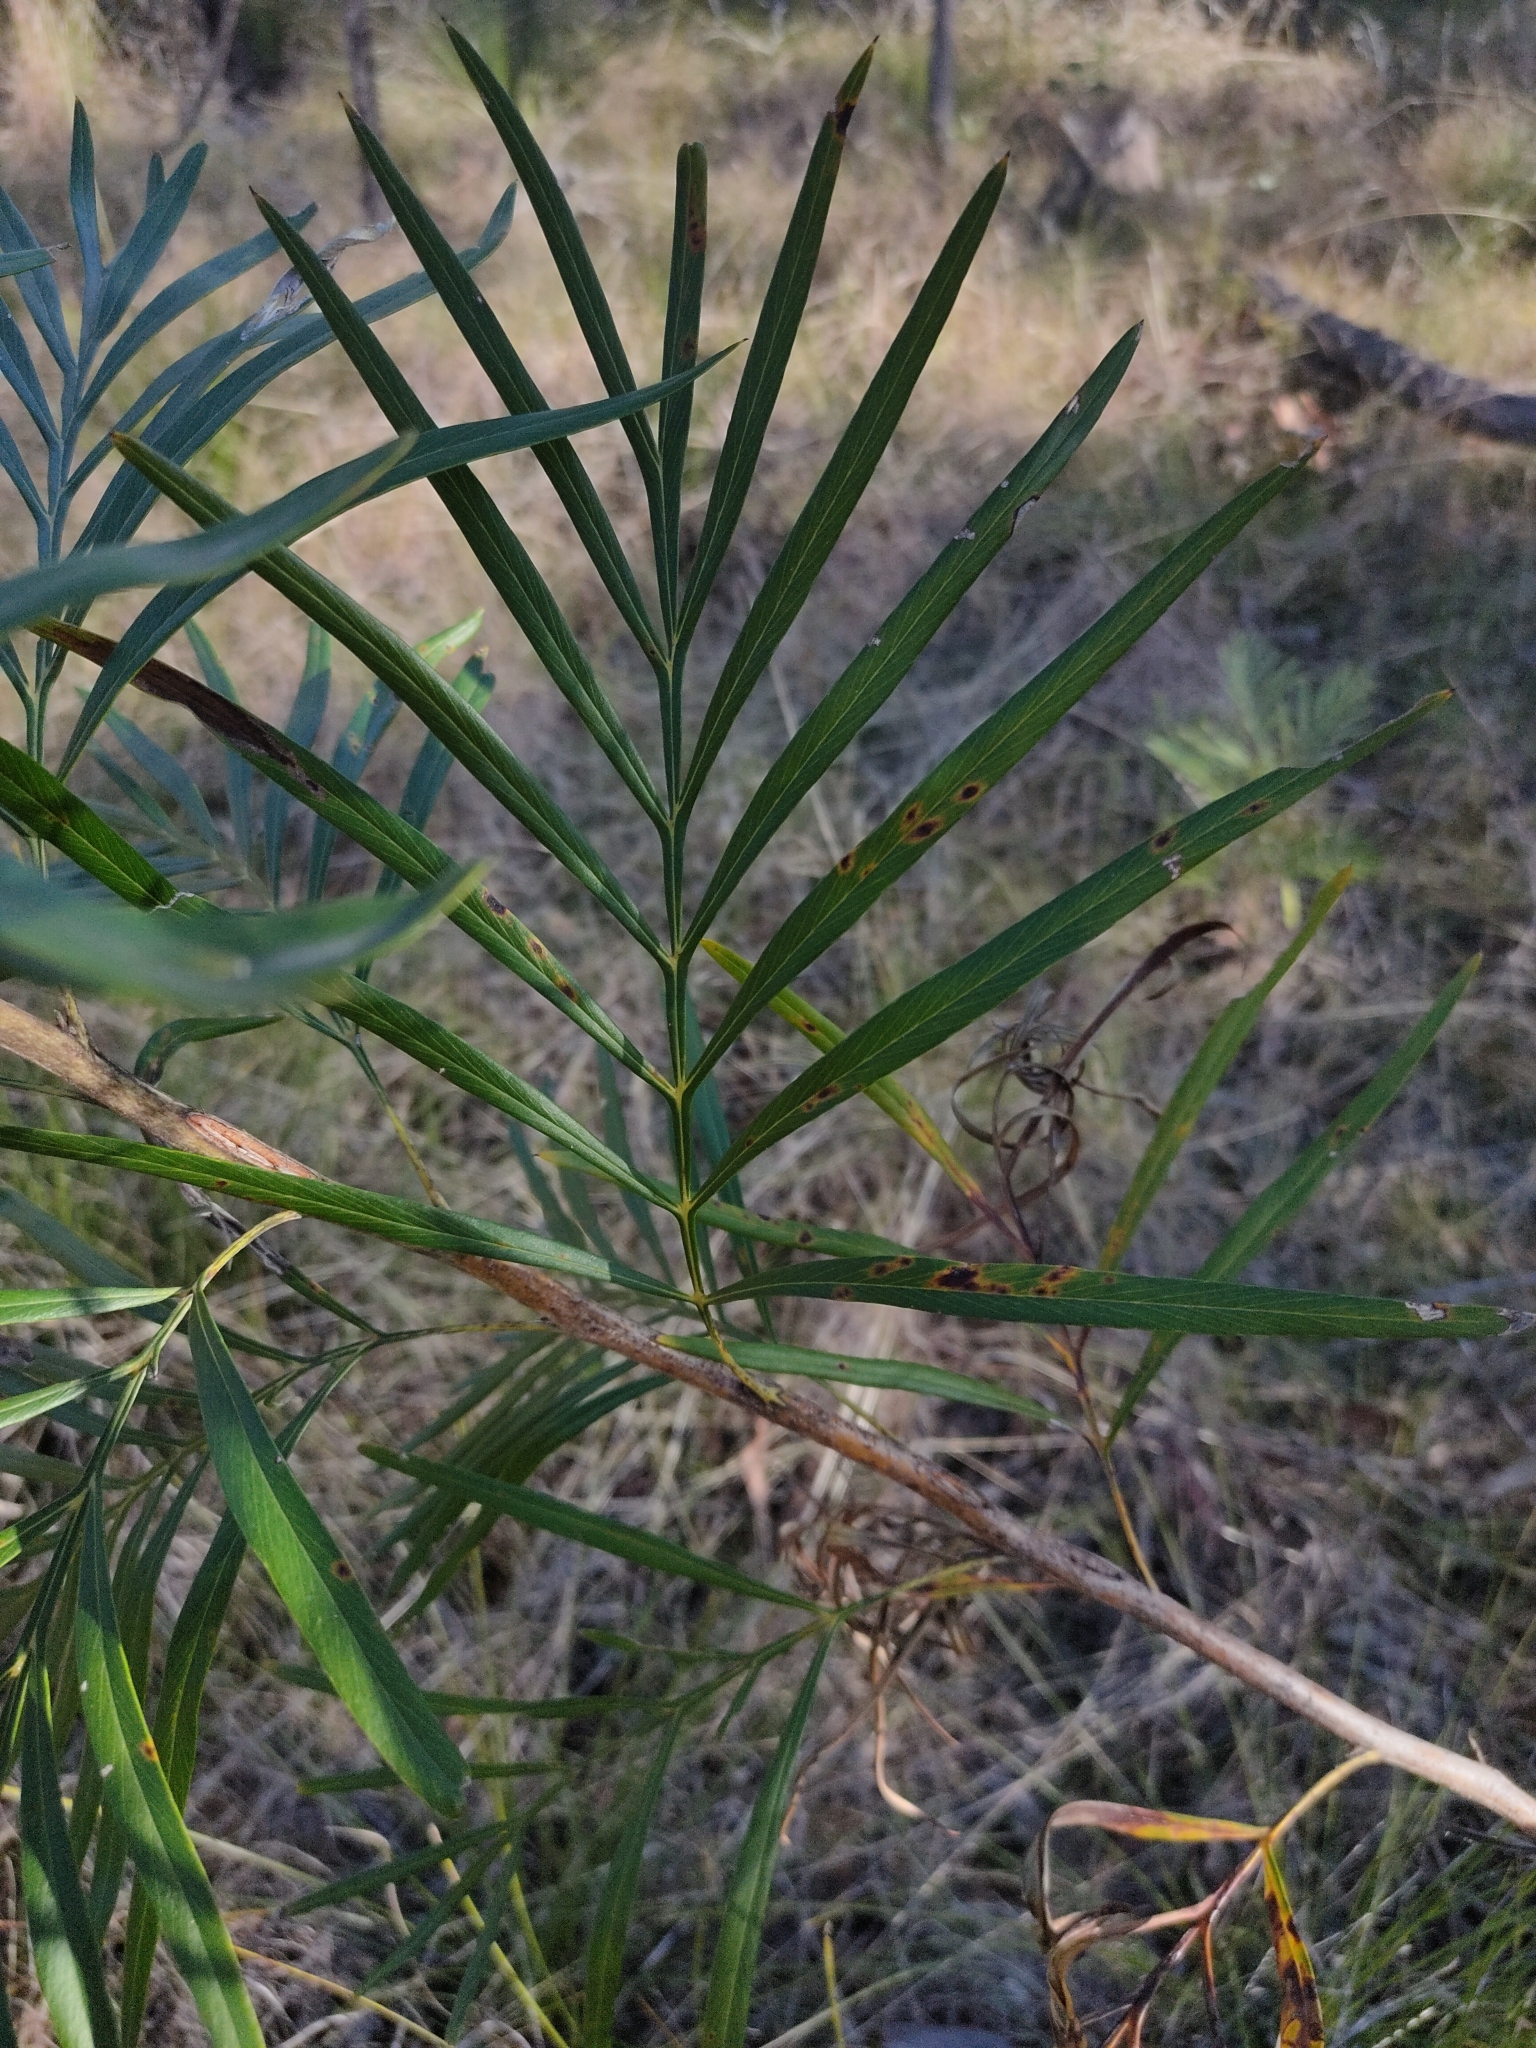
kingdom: Plantae
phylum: Tracheophyta
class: Magnoliopsida
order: Proteales
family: Proteaceae
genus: Grevillea
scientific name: Grevillea banksii
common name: Kahili flower
